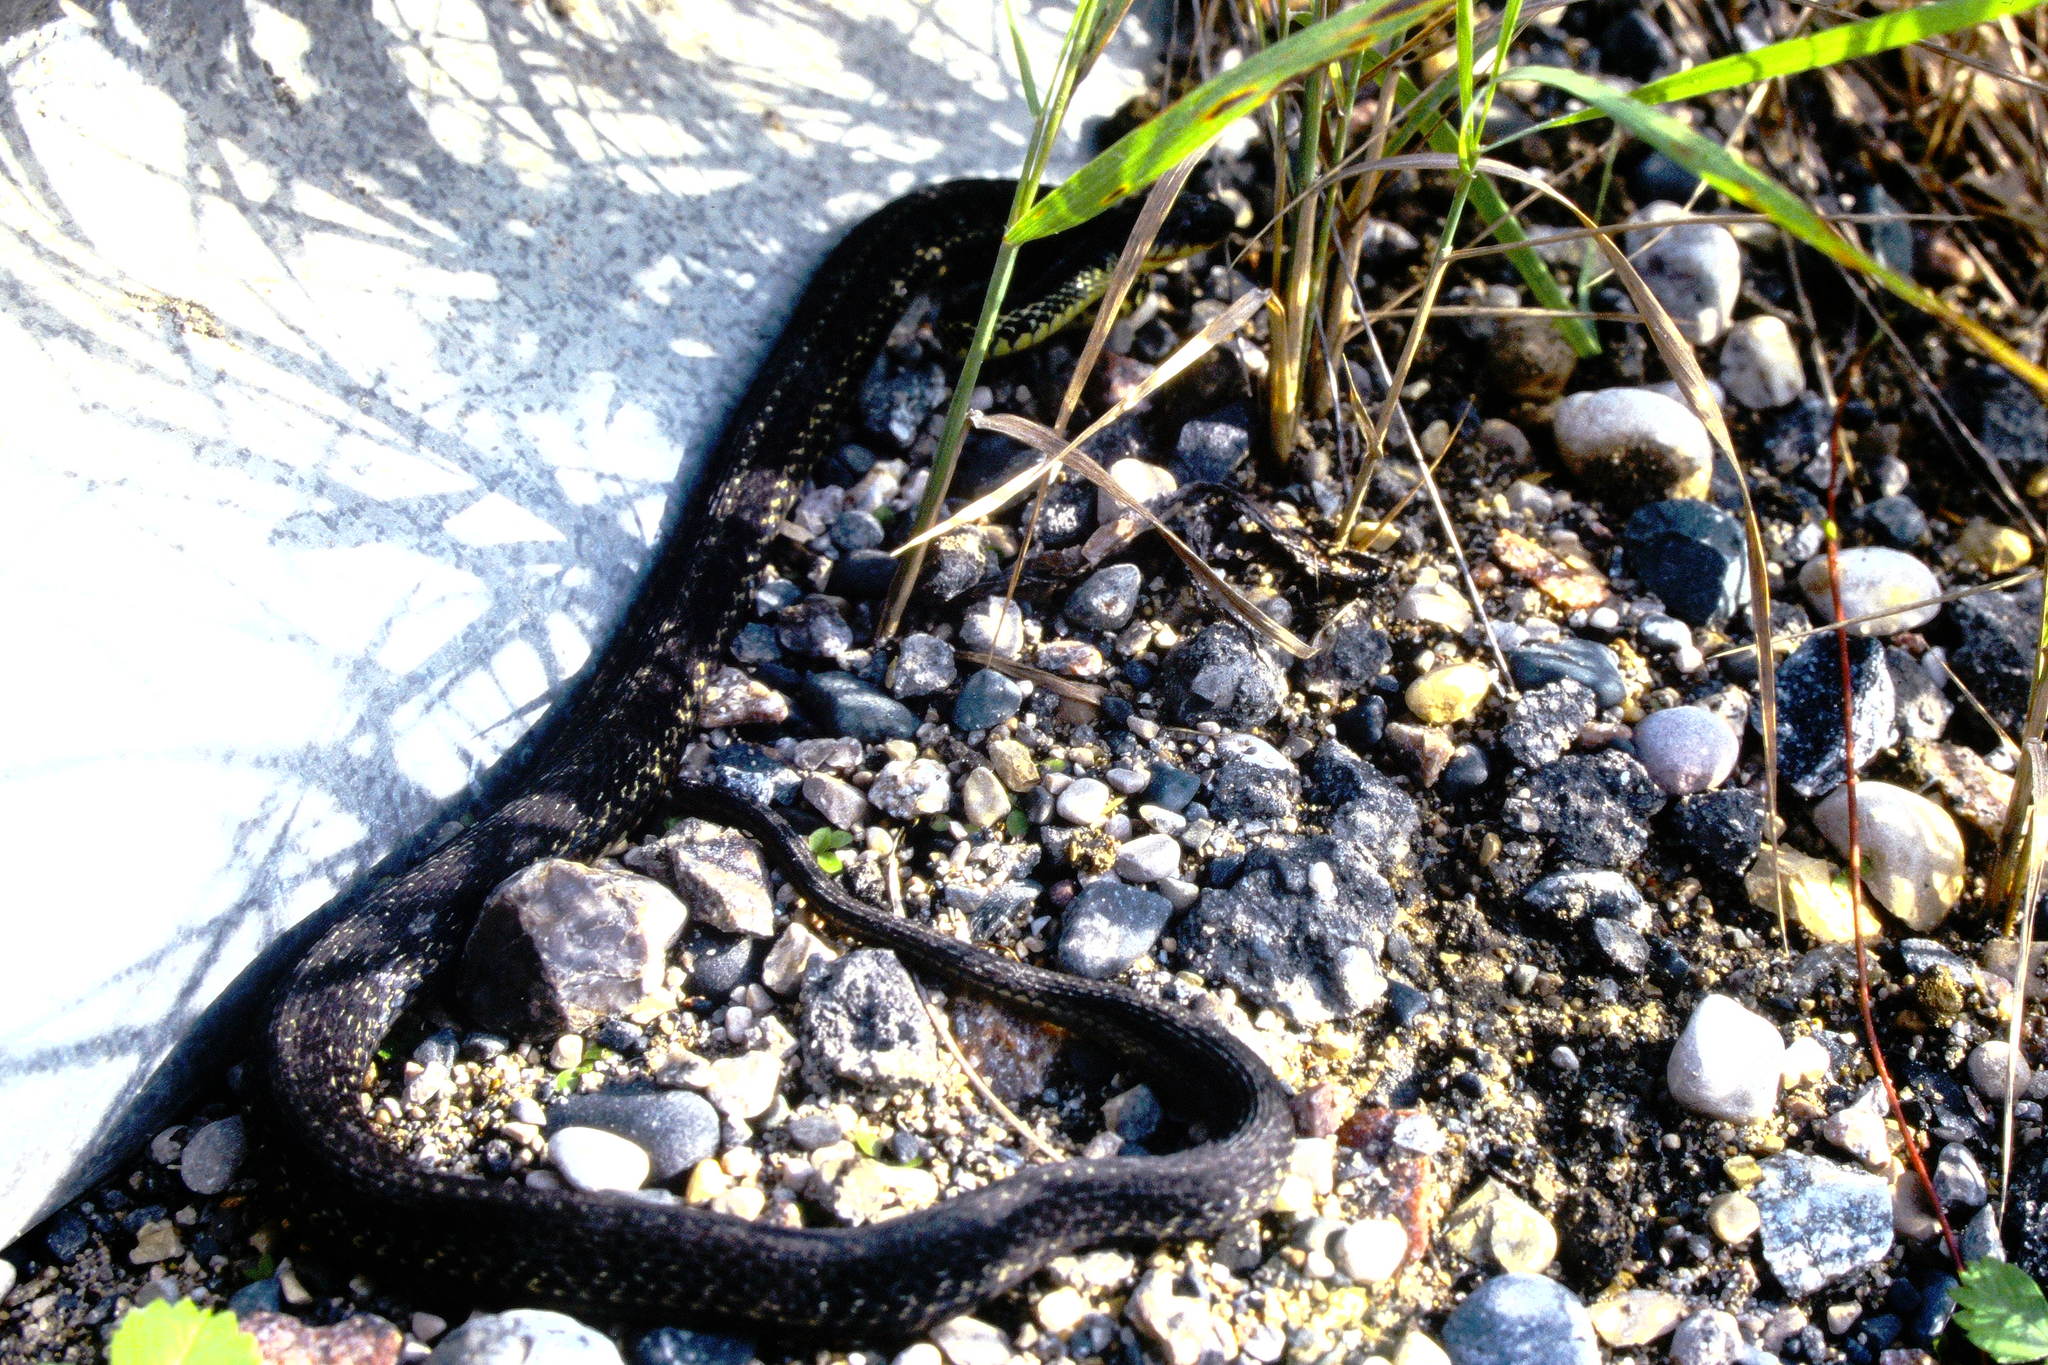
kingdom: Animalia
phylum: Chordata
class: Squamata
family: Colubridae
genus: Thamnophis
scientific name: Thamnophis sirtalis
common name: Common garter snake
